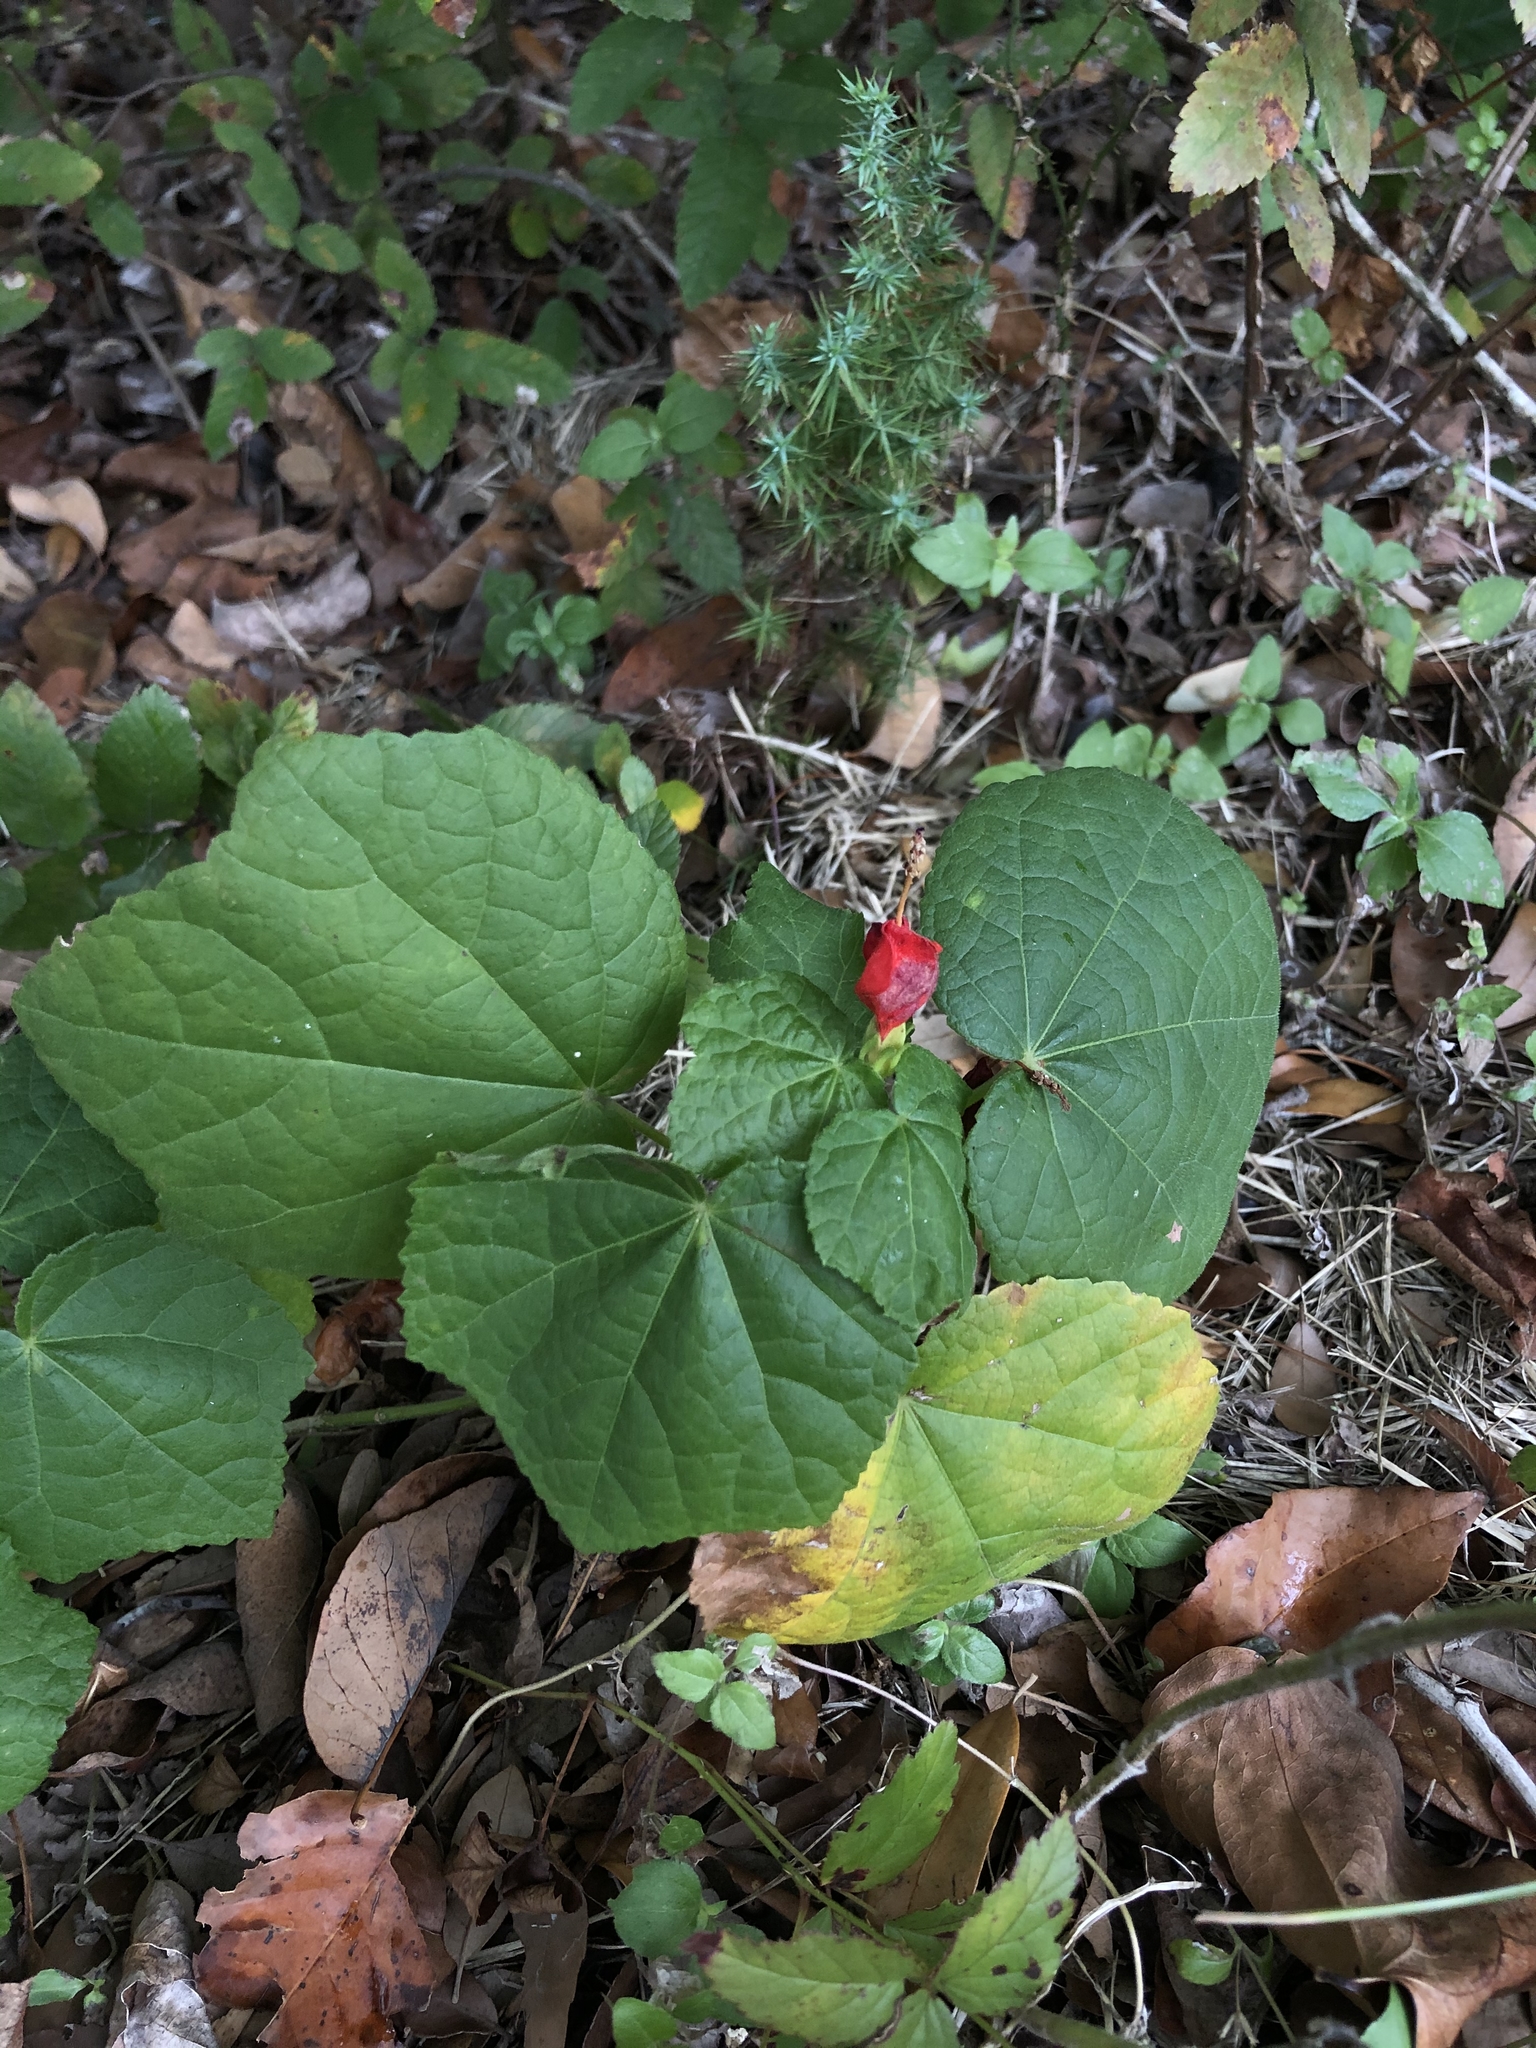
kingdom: Plantae
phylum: Tracheophyta
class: Magnoliopsida
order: Malvales
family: Malvaceae
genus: Malvaviscus
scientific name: Malvaviscus arboreus
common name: Wax mallow
